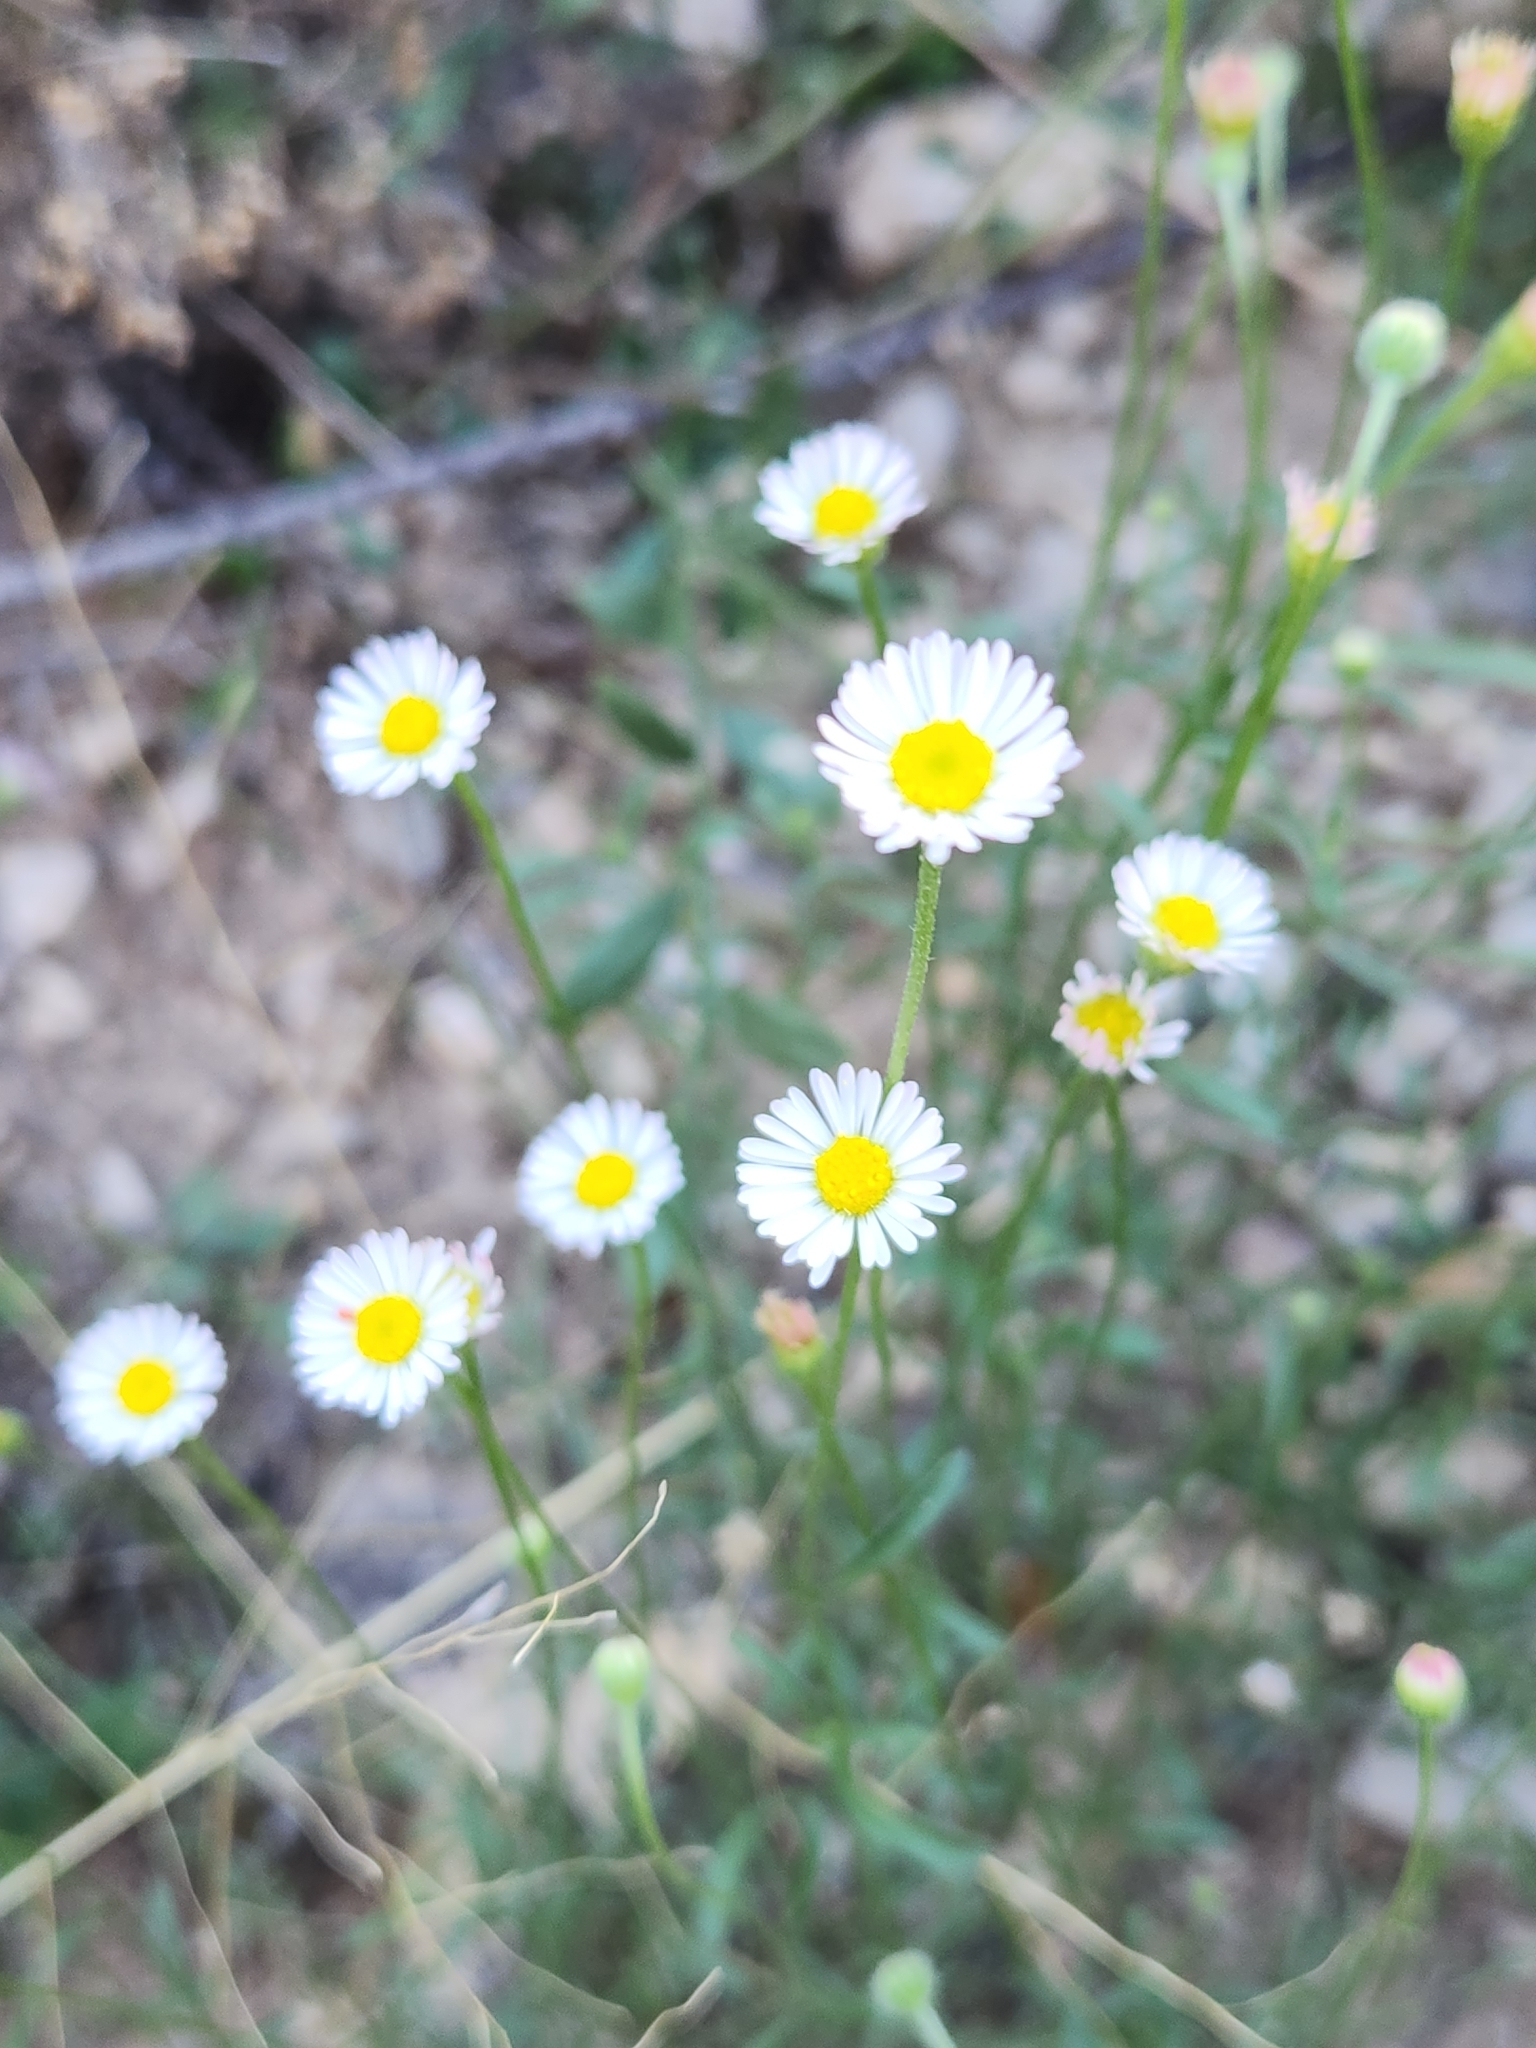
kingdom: Plantae
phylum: Tracheophyta
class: Magnoliopsida
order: Asterales
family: Asteraceae
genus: Erigeron
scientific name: Erigeron modestus
